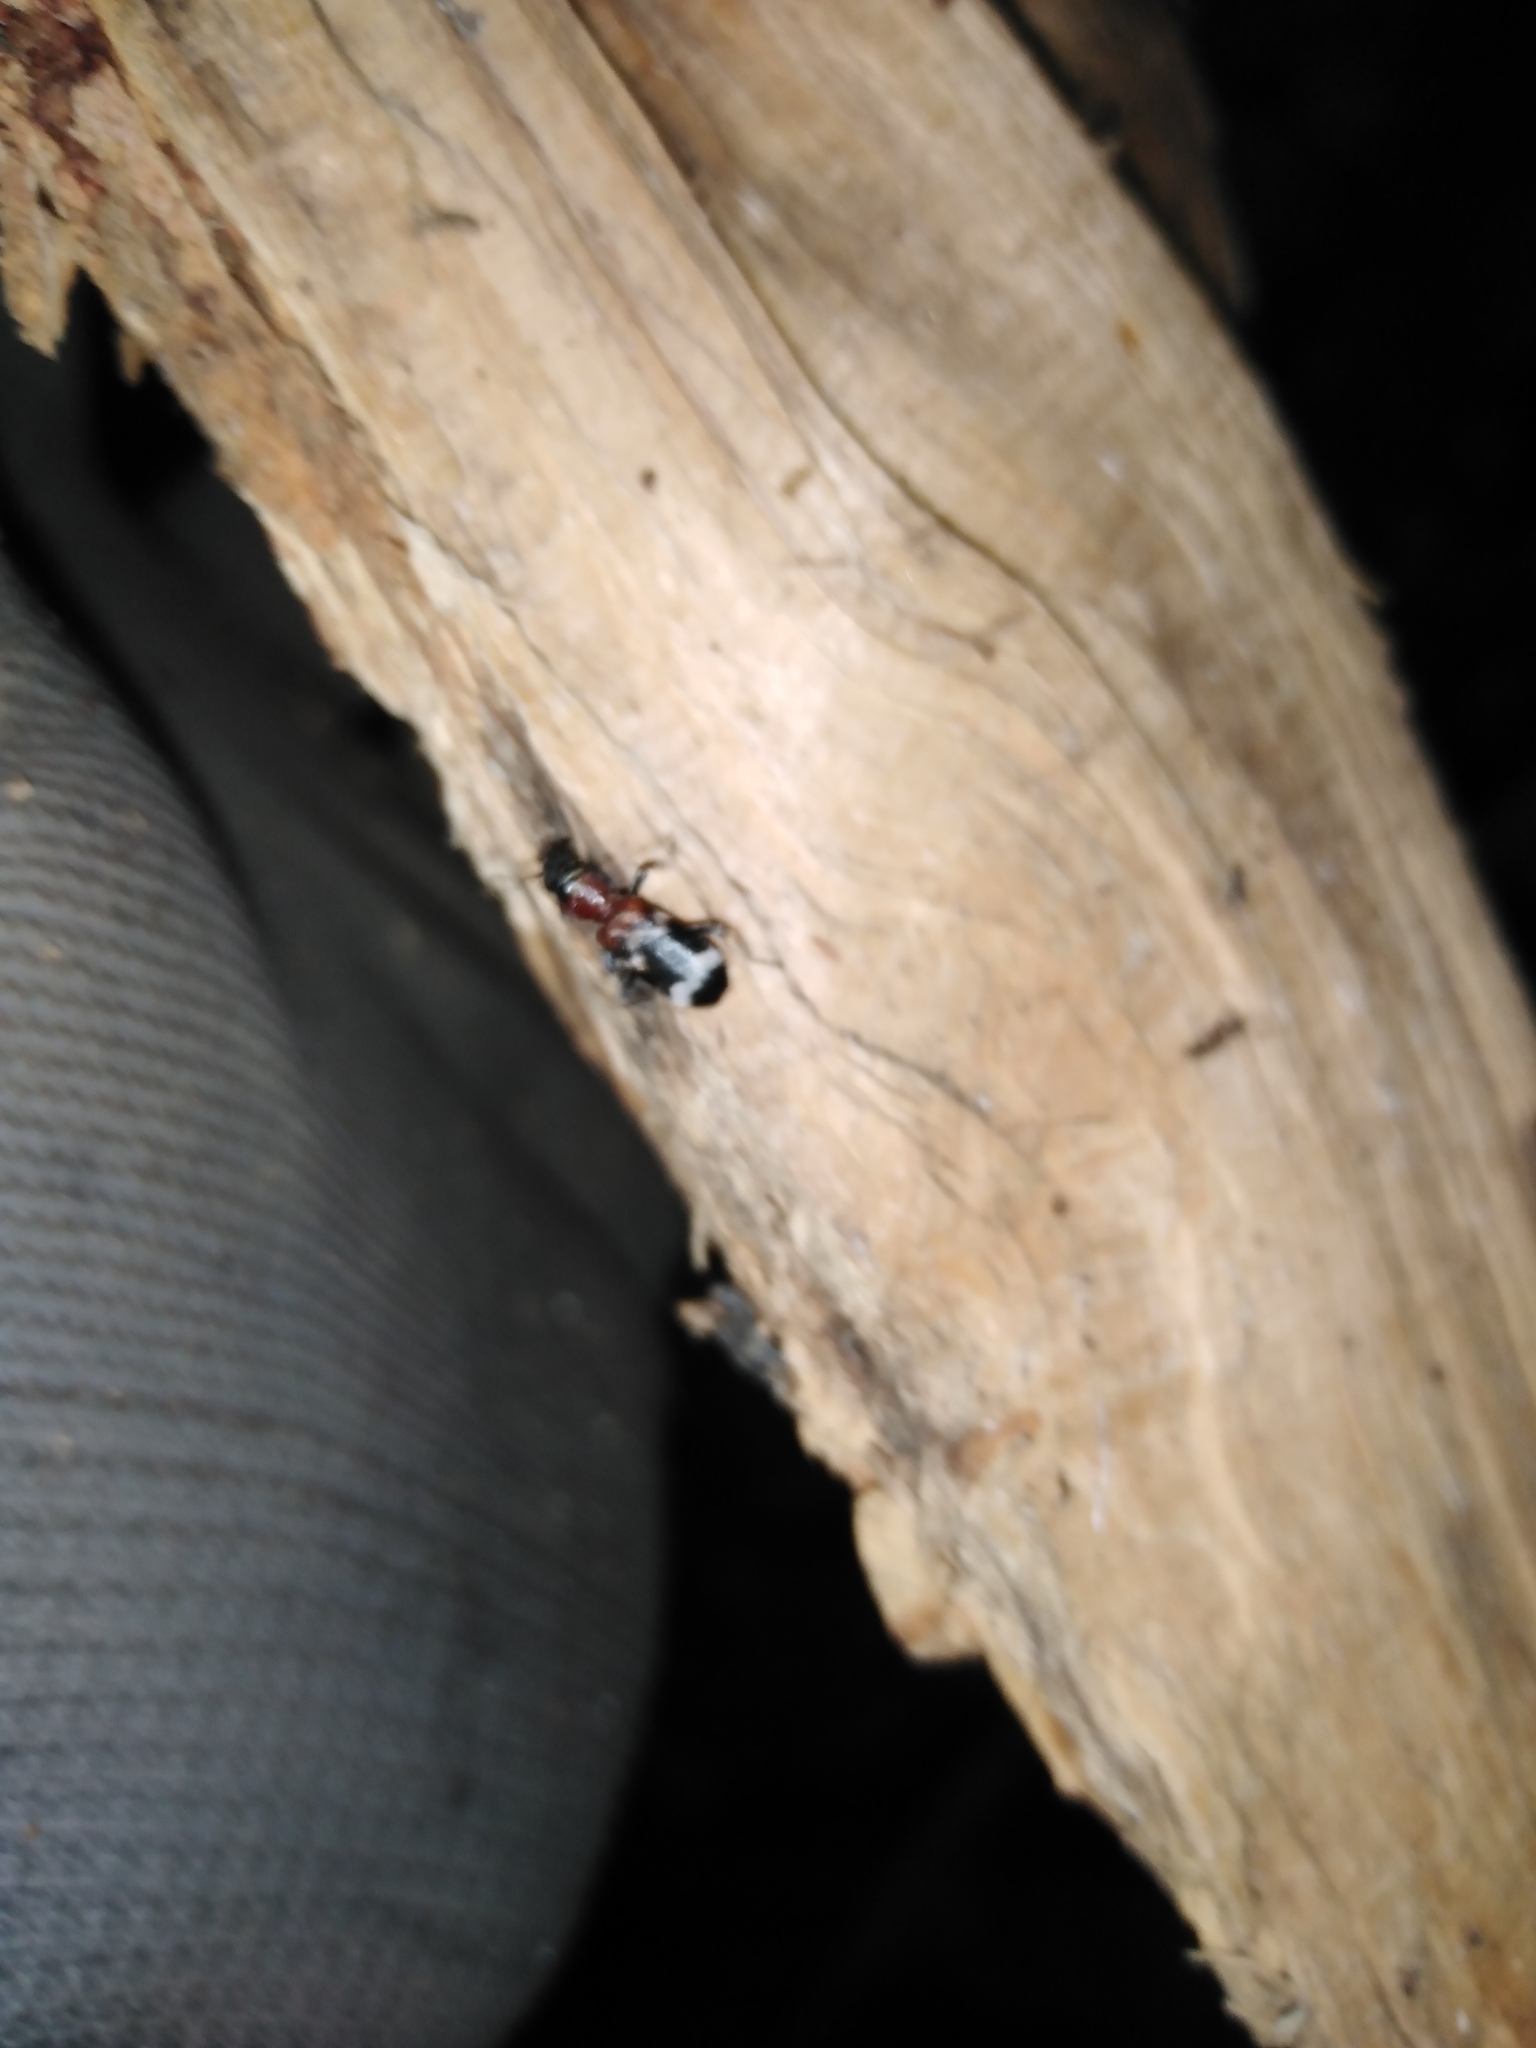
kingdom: Animalia
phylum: Arthropoda
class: Insecta
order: Coleoptera
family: Cleridae
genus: Thanasimus
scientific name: Thanasimus formicarius
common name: Ant beetle
